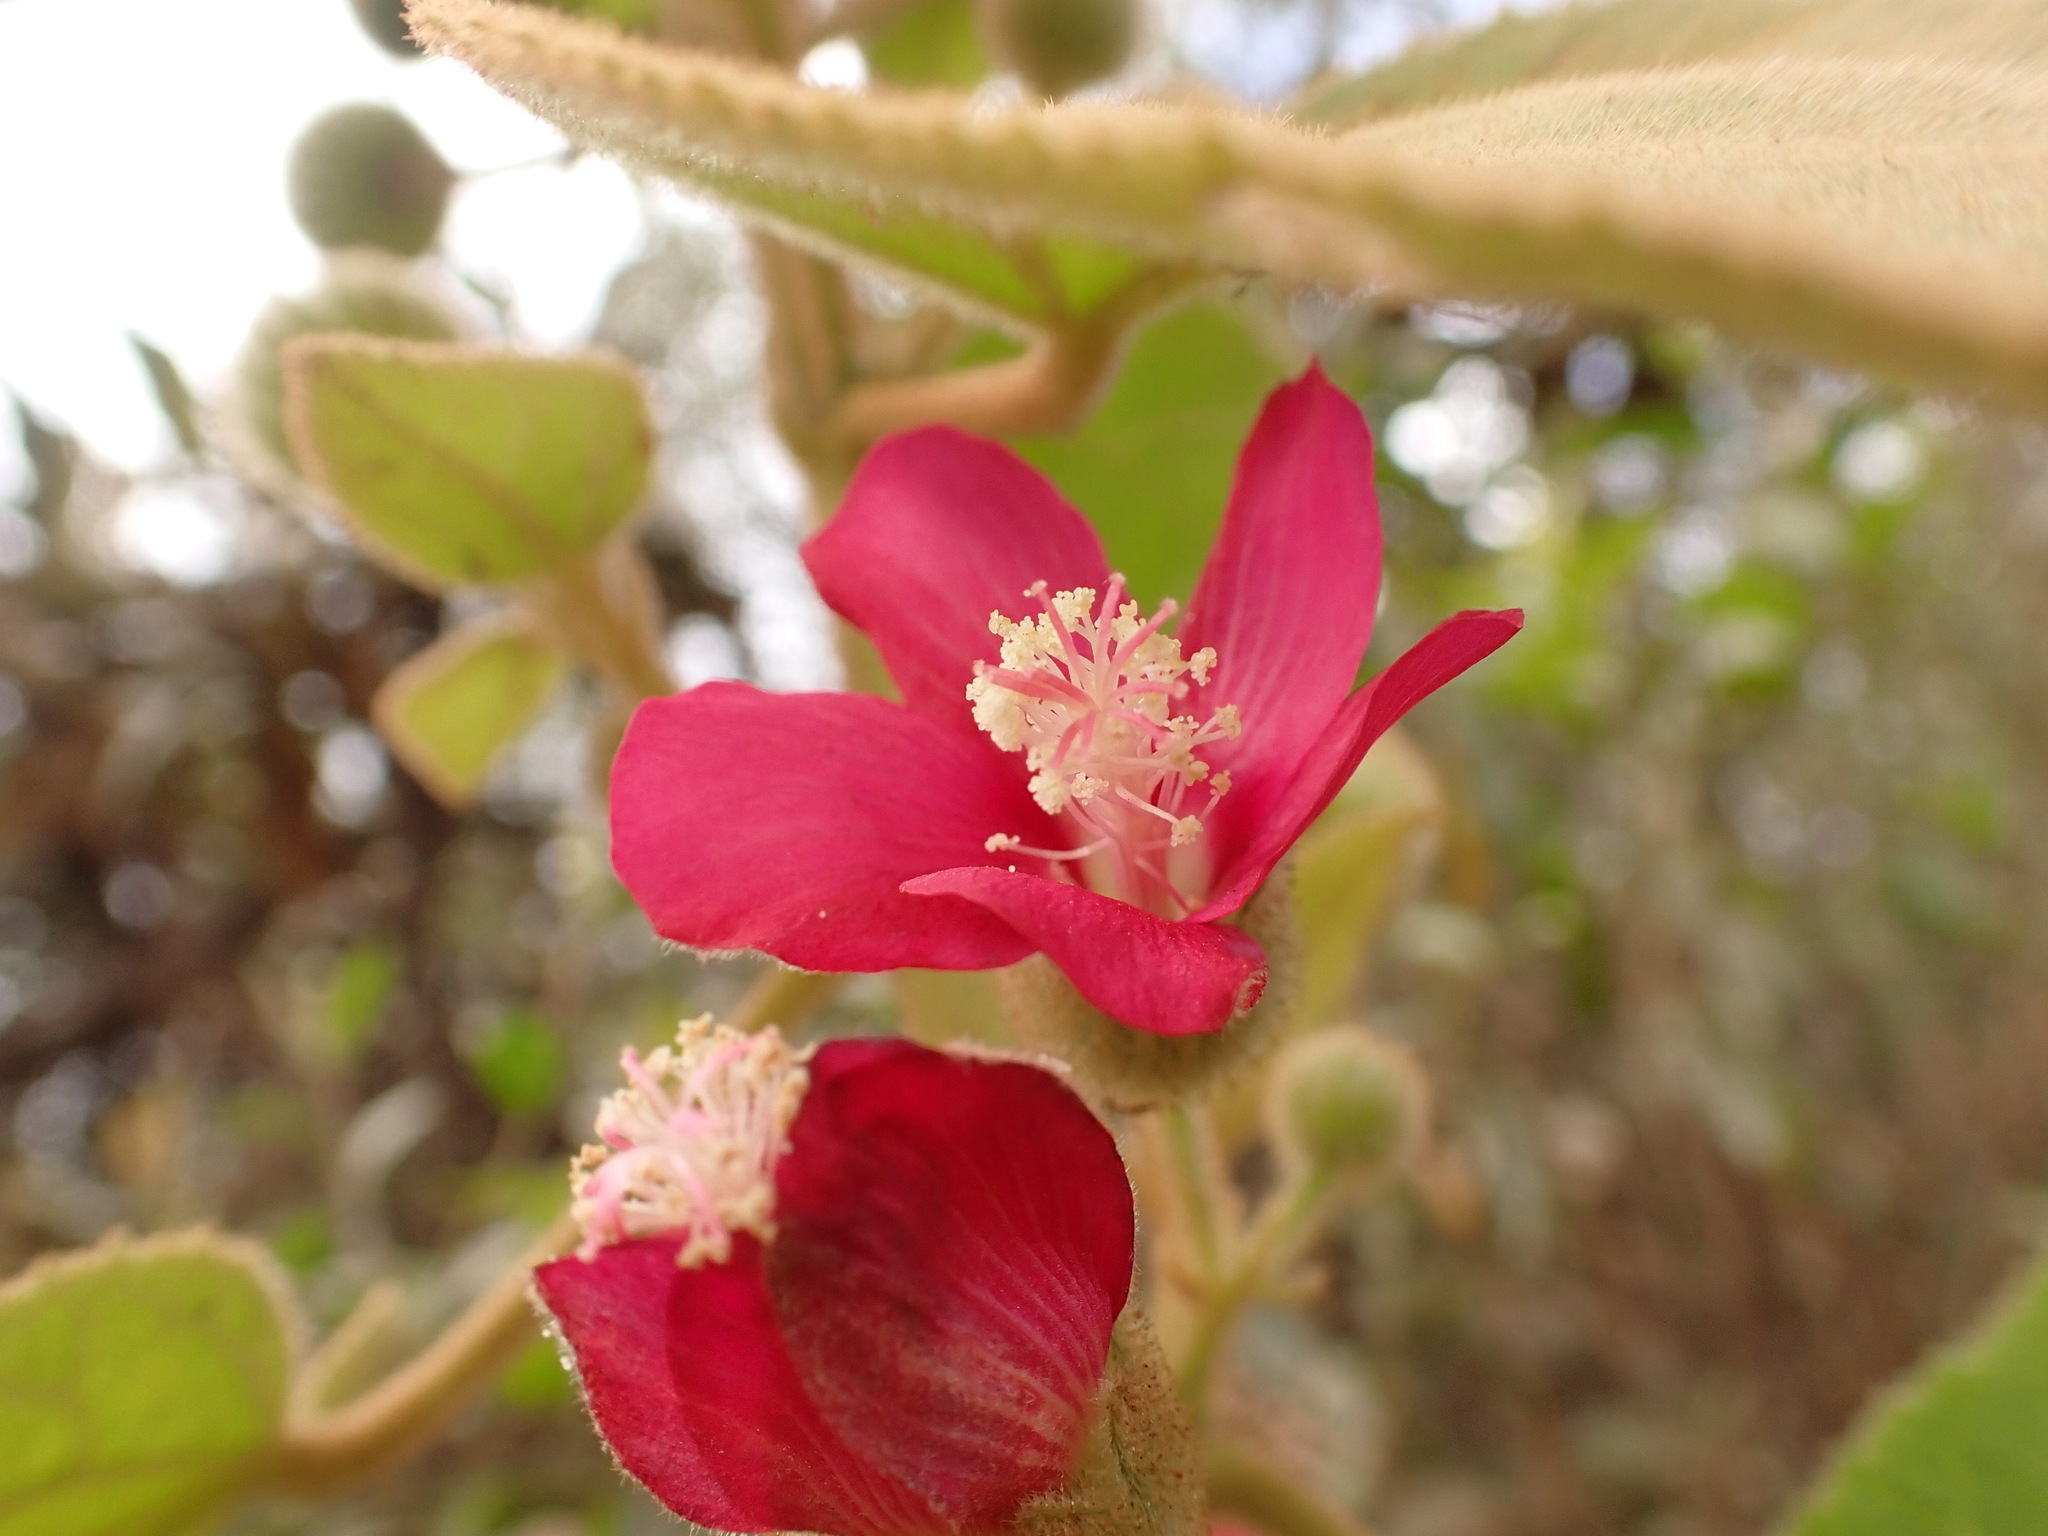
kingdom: Plantae
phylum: Tracheophyta
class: Magnoliopsida
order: Malvales
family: Malvaceae
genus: Pavonia
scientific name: Pavonia malacophylla
